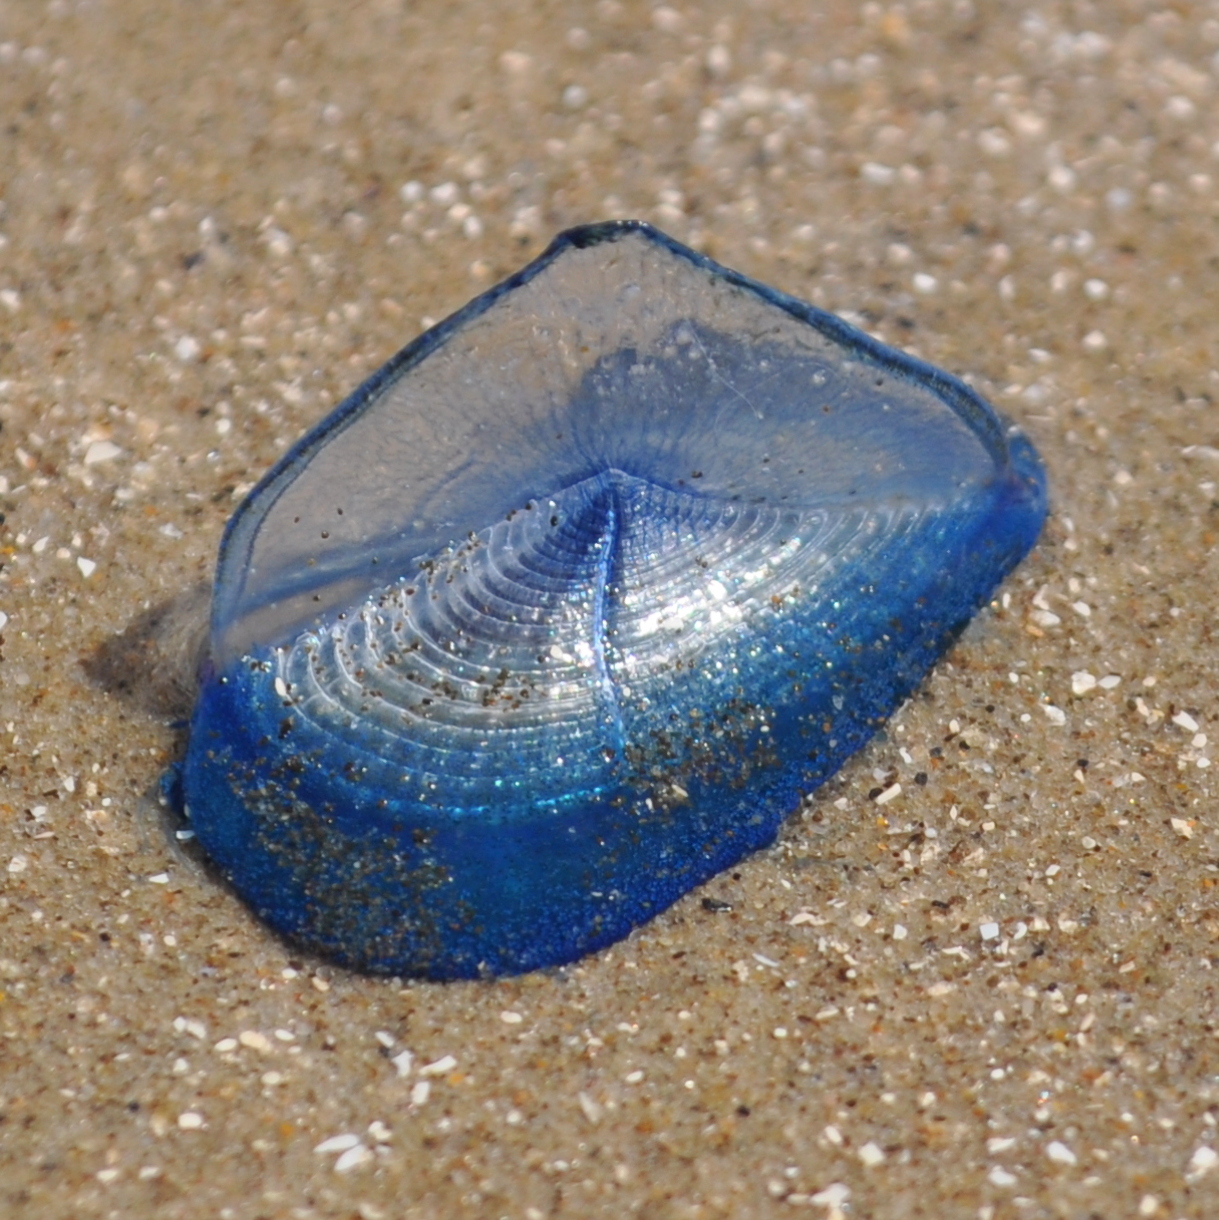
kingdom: Animalia
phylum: Cnidaria
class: Hydrozoa
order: Anthoathecata
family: Porpitidae
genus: Velella
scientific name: Velella velella
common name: By-the-wind-sailor
